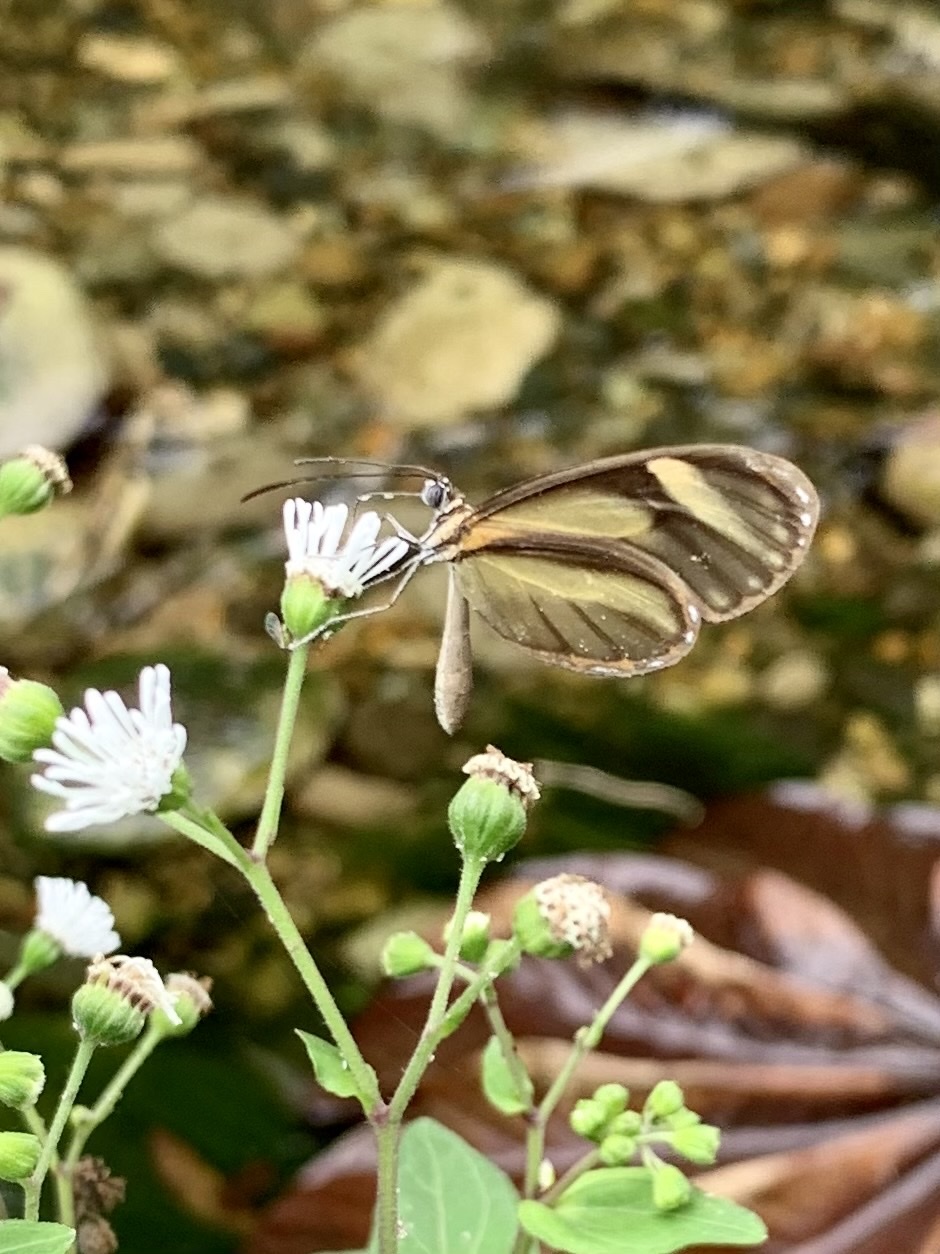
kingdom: Animalia
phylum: Arthropoda
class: Insecta
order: Lepidoptera
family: Nymphalidae
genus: Pteronymia
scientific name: Pteronymia aletta
